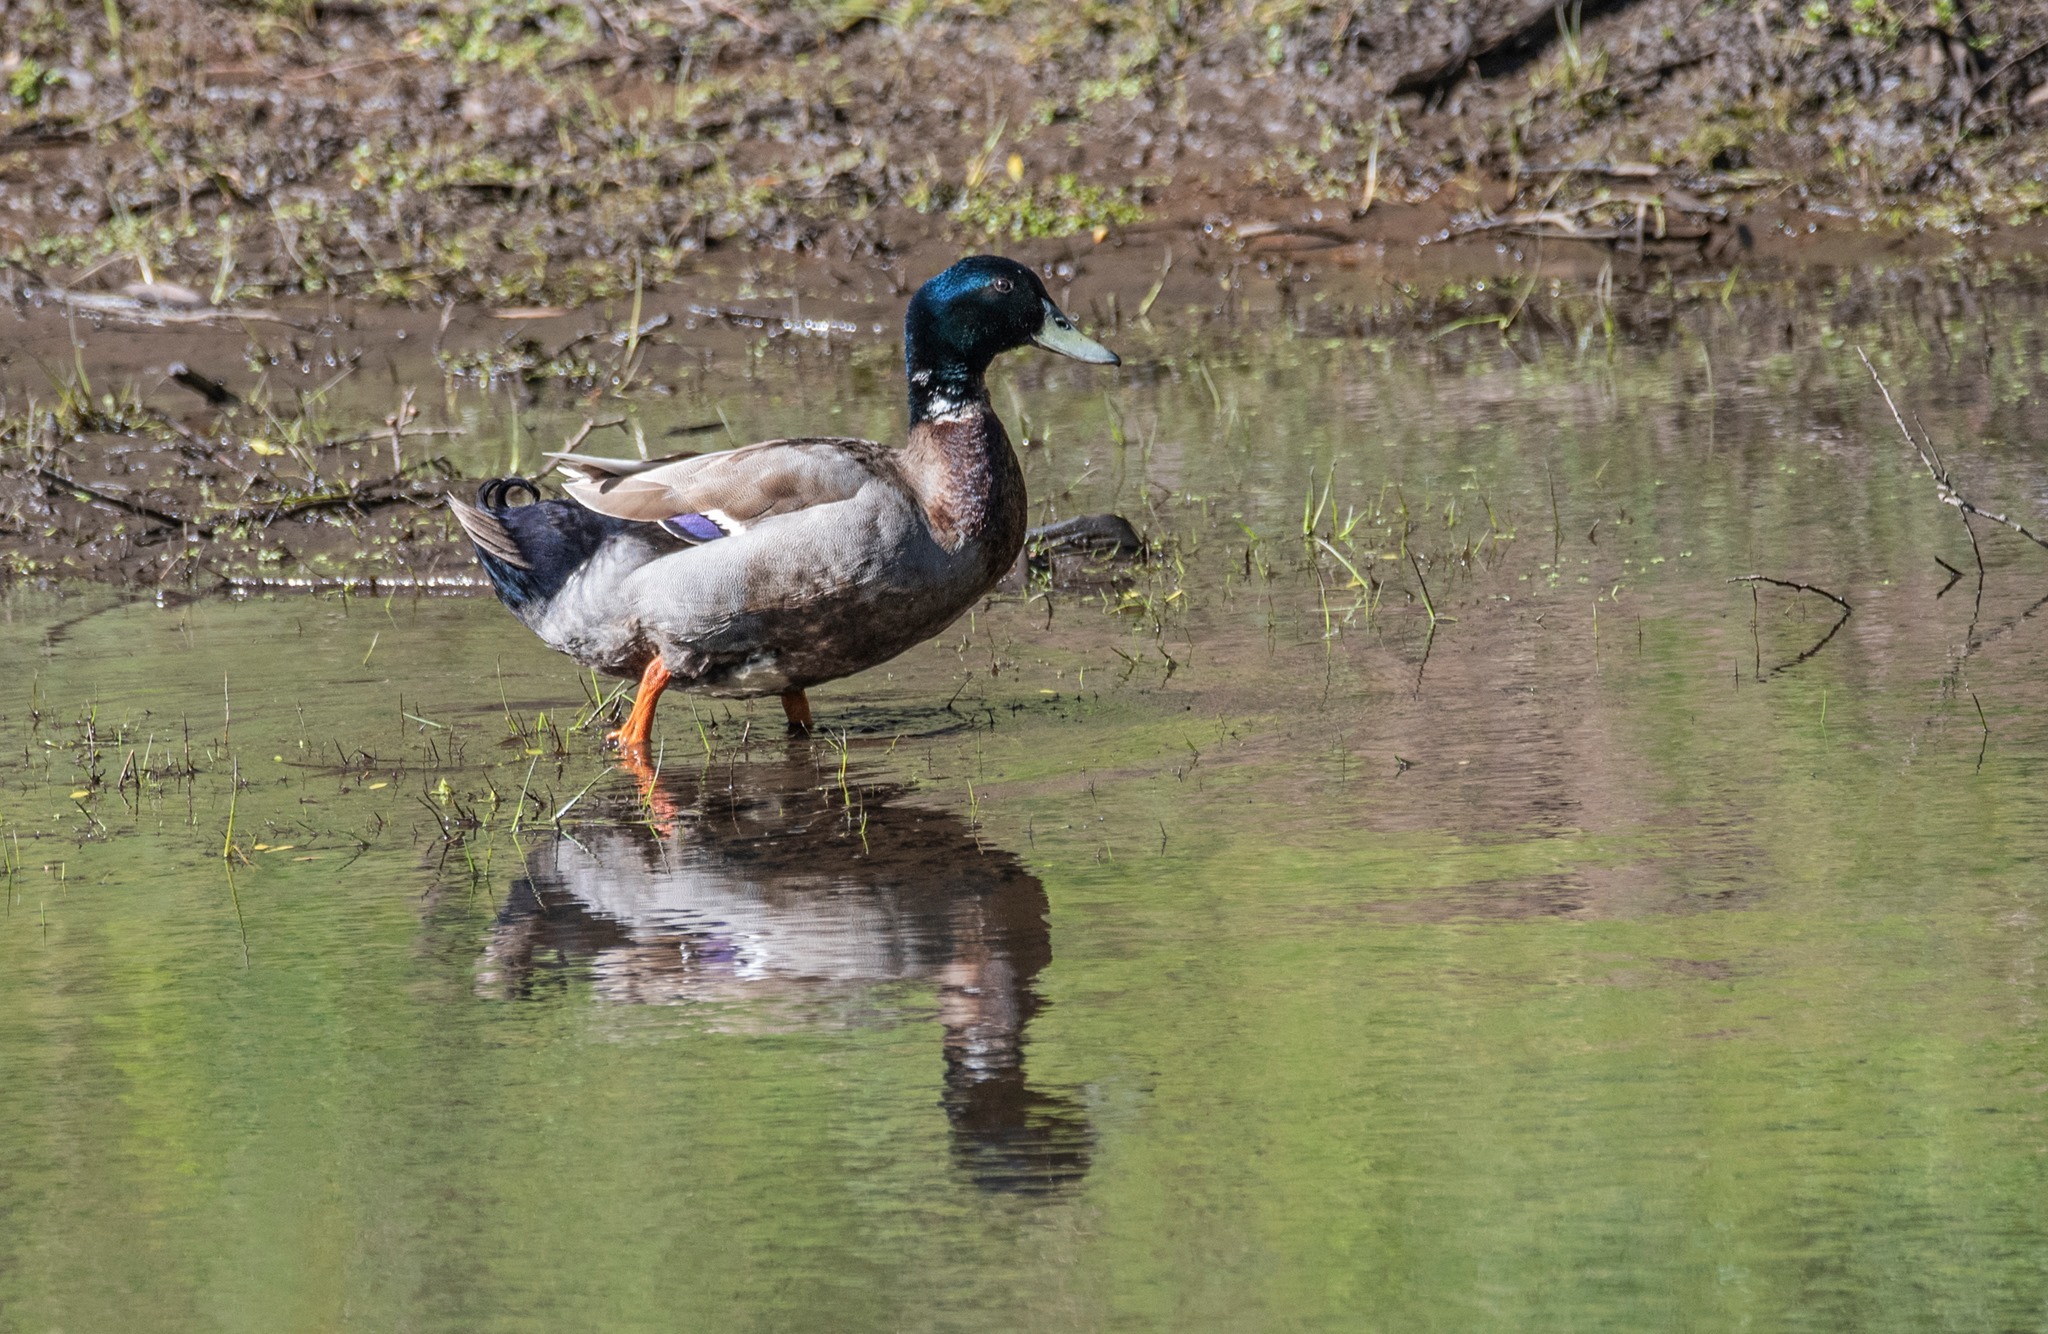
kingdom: Animalia
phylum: Chordata
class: Aves
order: Anseriformes
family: Anatidae
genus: Anas
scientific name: Anas platyrhynchos
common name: Mallard
